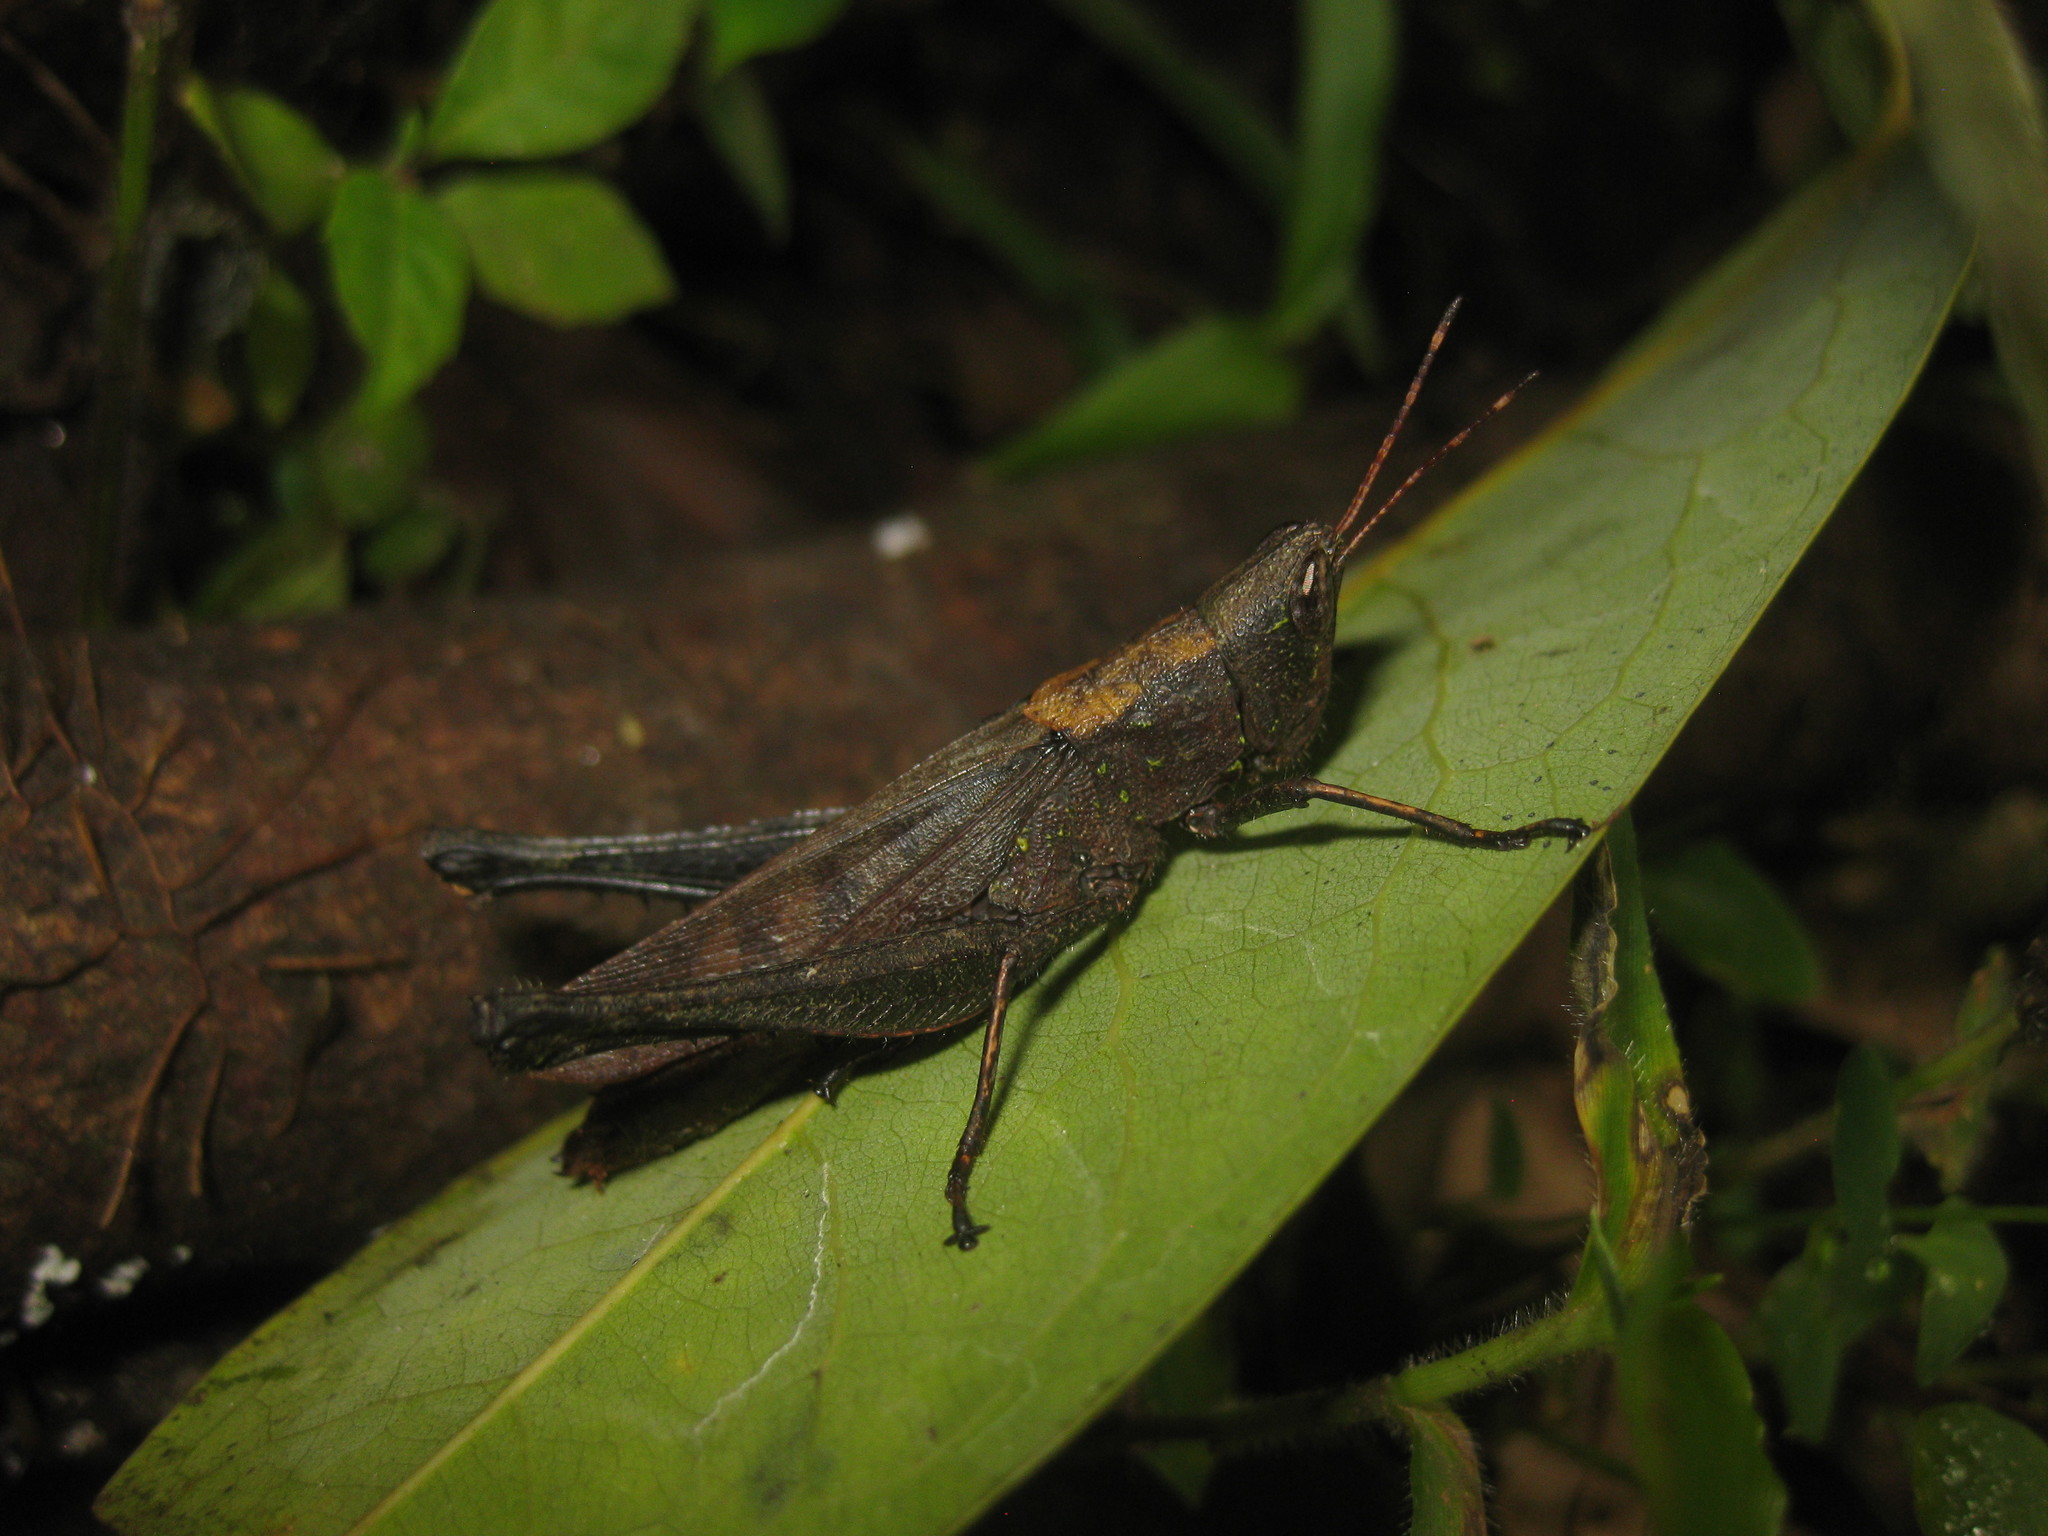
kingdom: Animalia
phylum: Arthropoda
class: Insecta
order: Orthoptera
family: Romaleidae
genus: Maculiparia
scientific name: Maculiparia rotundata
